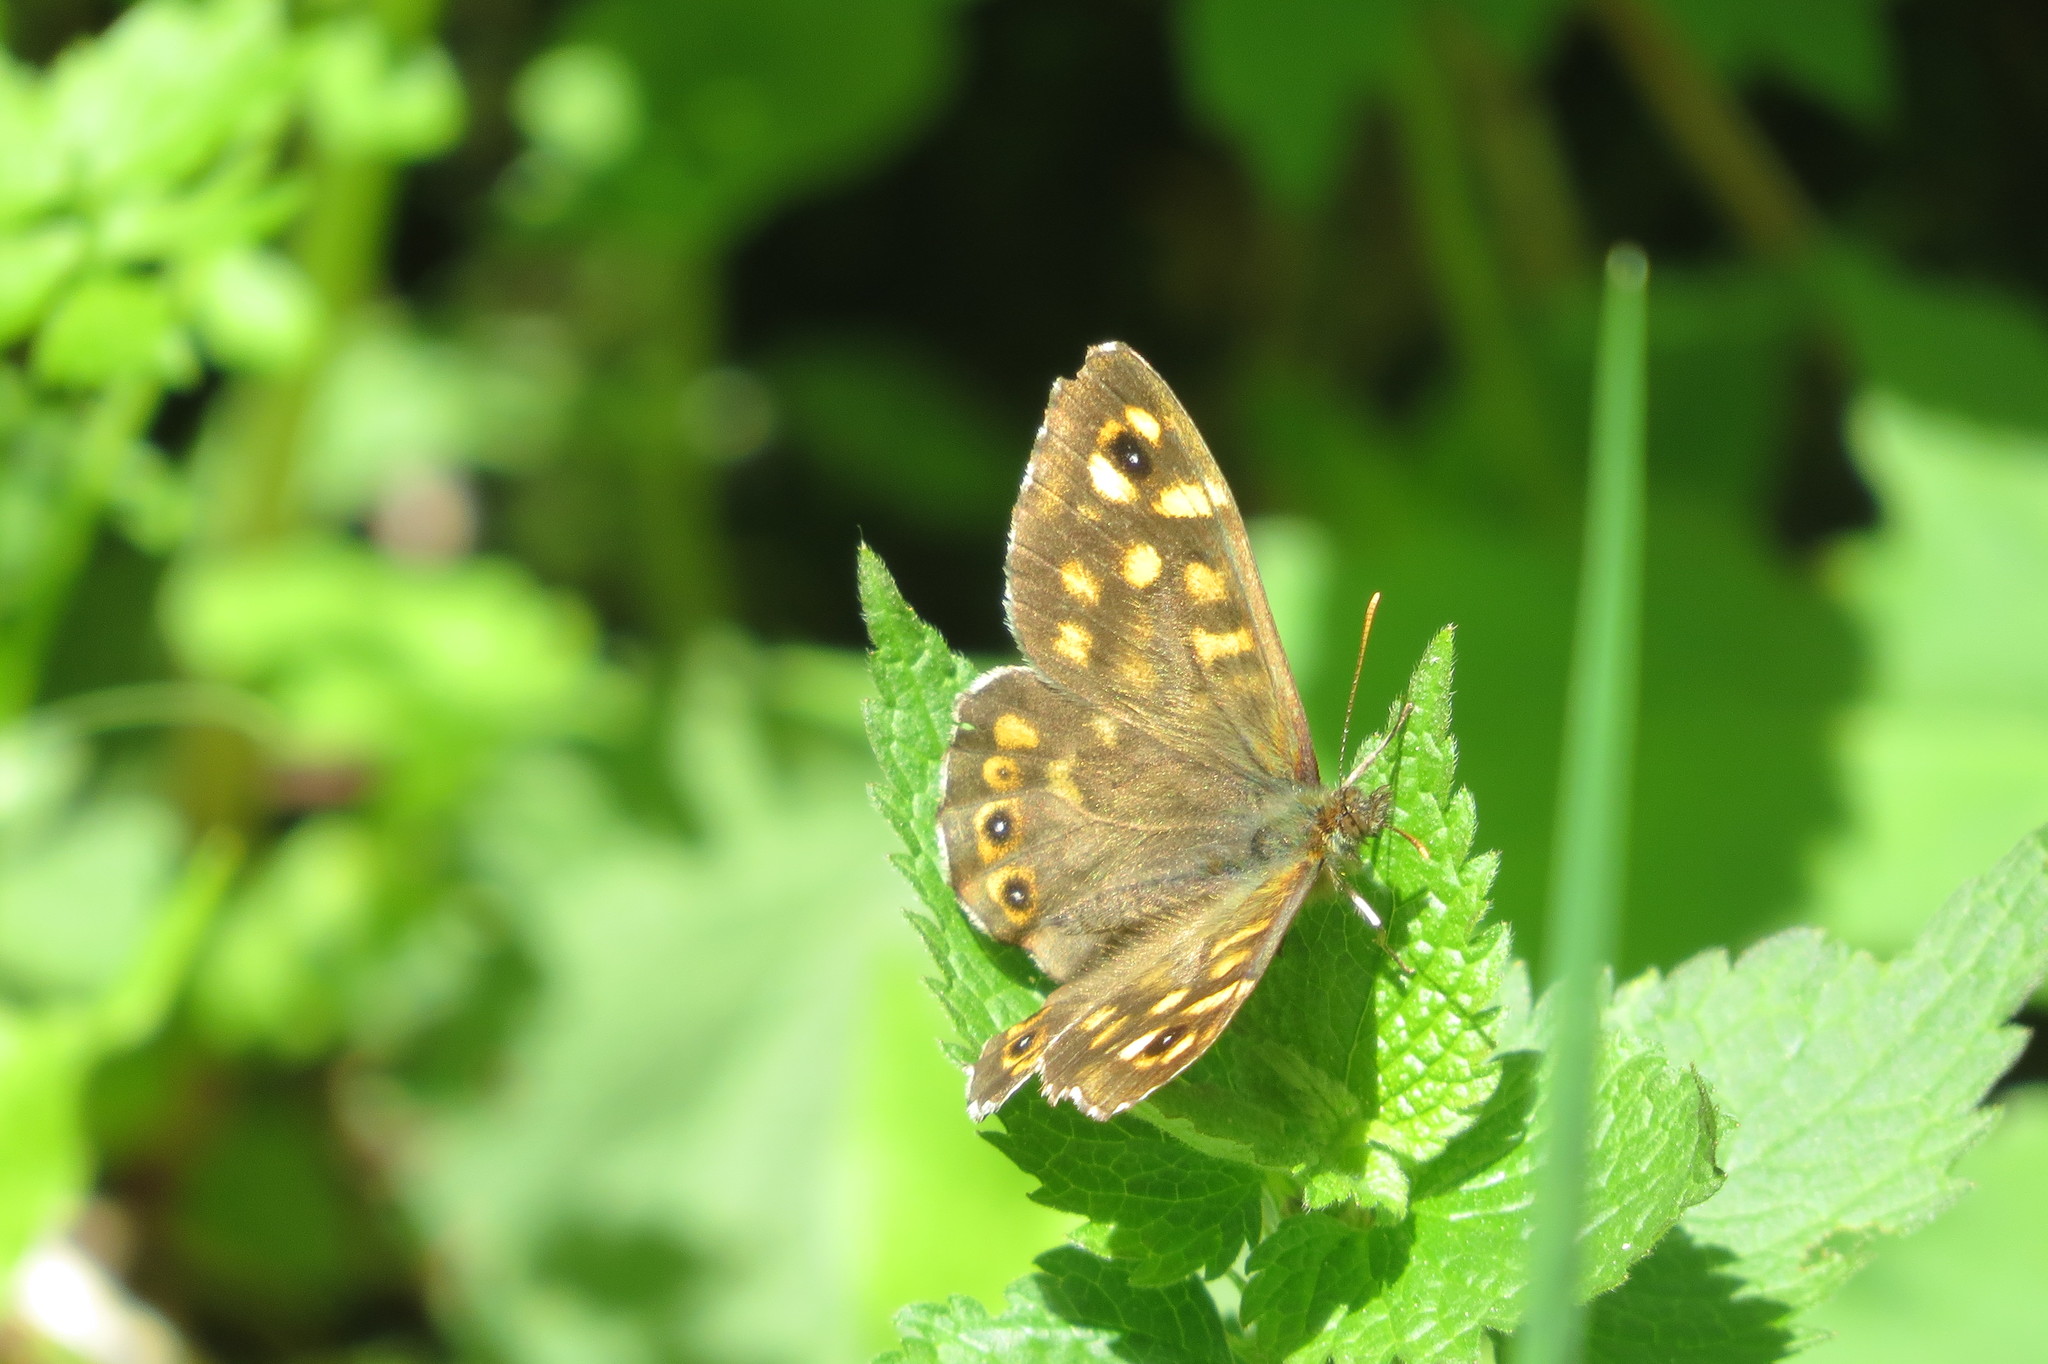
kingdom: Animalia
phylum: Arthropoda
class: Insecta
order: Lepidoptera
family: Nymphalidae
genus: Pararge
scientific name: Pararge aegeria
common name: Speckled wood
